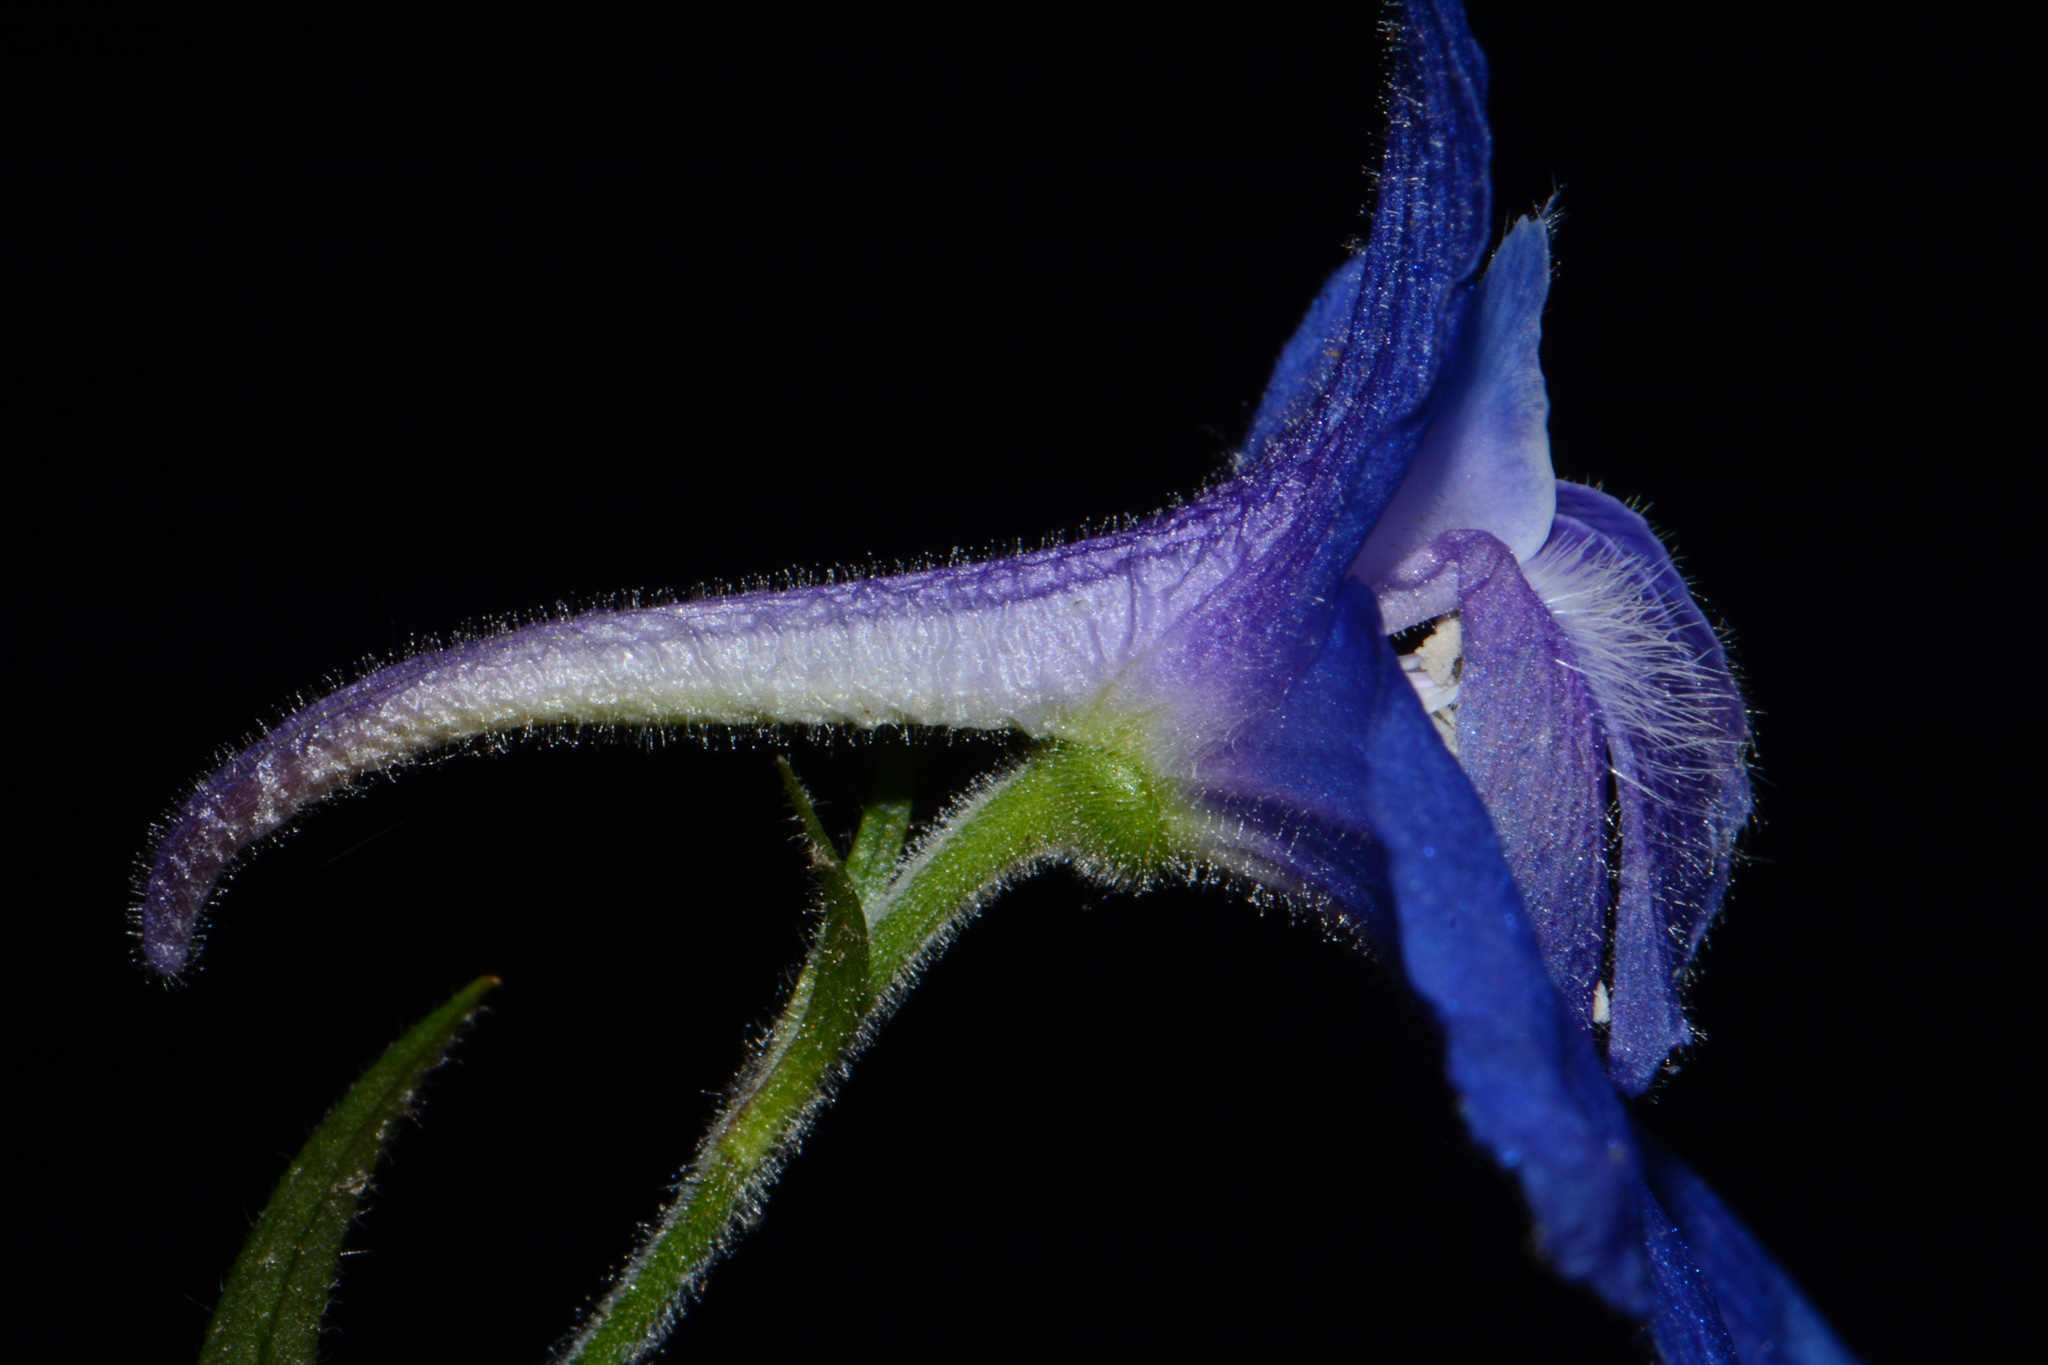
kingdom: Plantae
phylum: Tracheophyta
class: Magnoliopsida
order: Ranunculales
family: Ranunculaceae
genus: Delphinium
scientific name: Delphinium alabamicum
